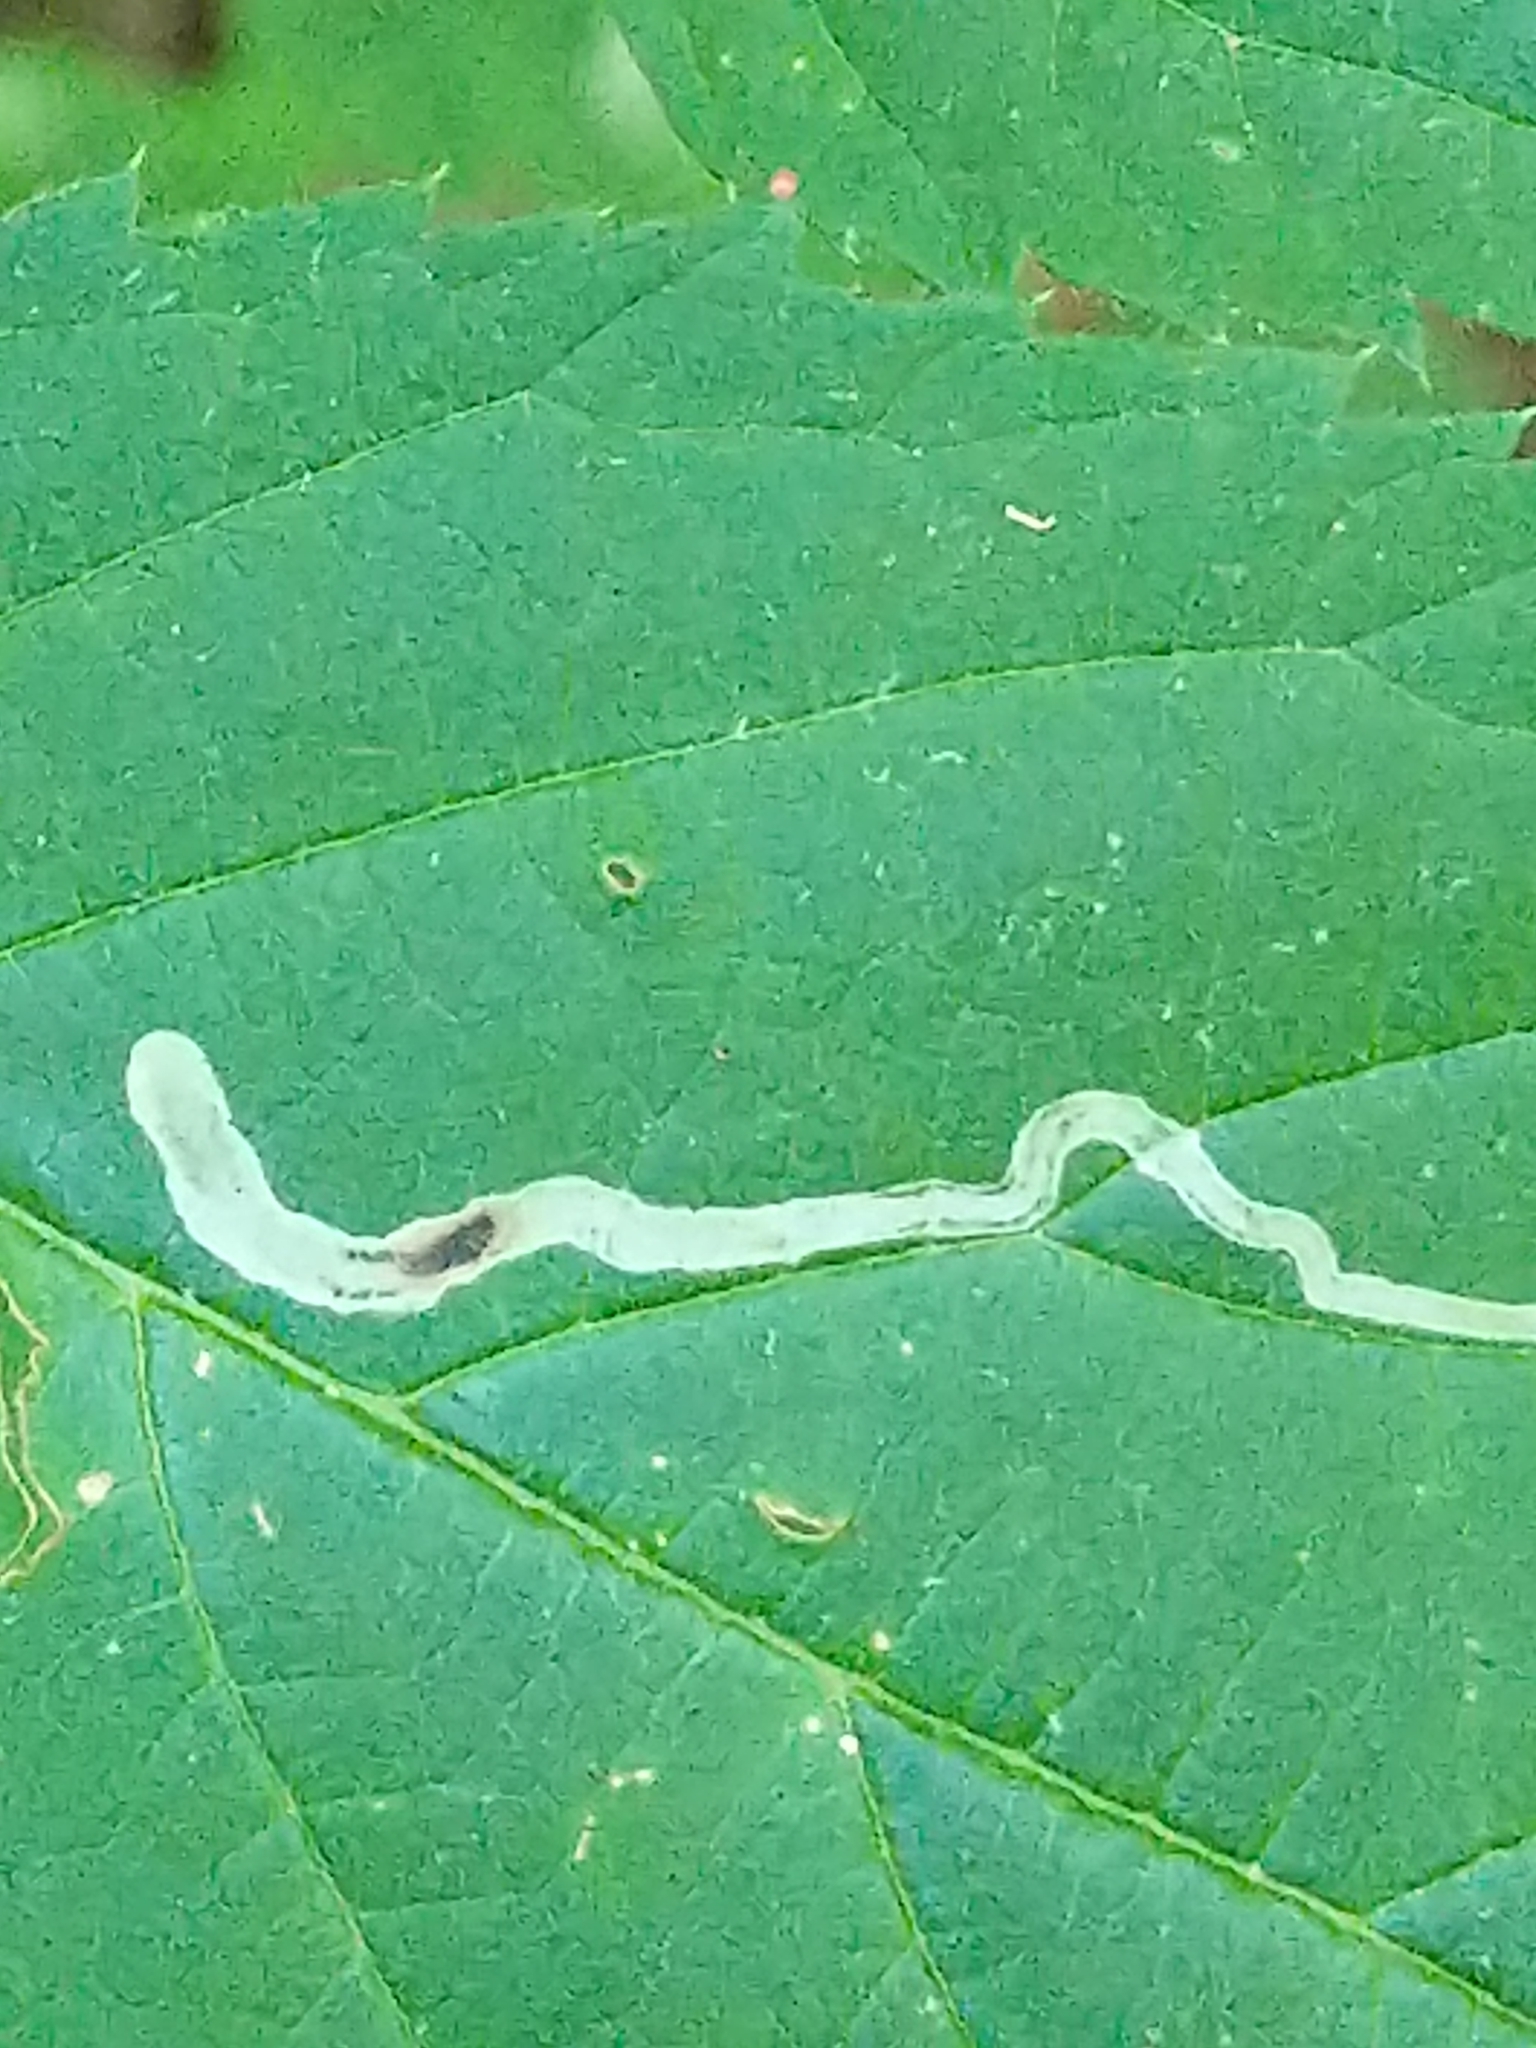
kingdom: Animalia
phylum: Arthropoda
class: Insecta
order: Diptera
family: Agromyzidae
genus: Agromyza
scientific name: Agromyza vockerothi
